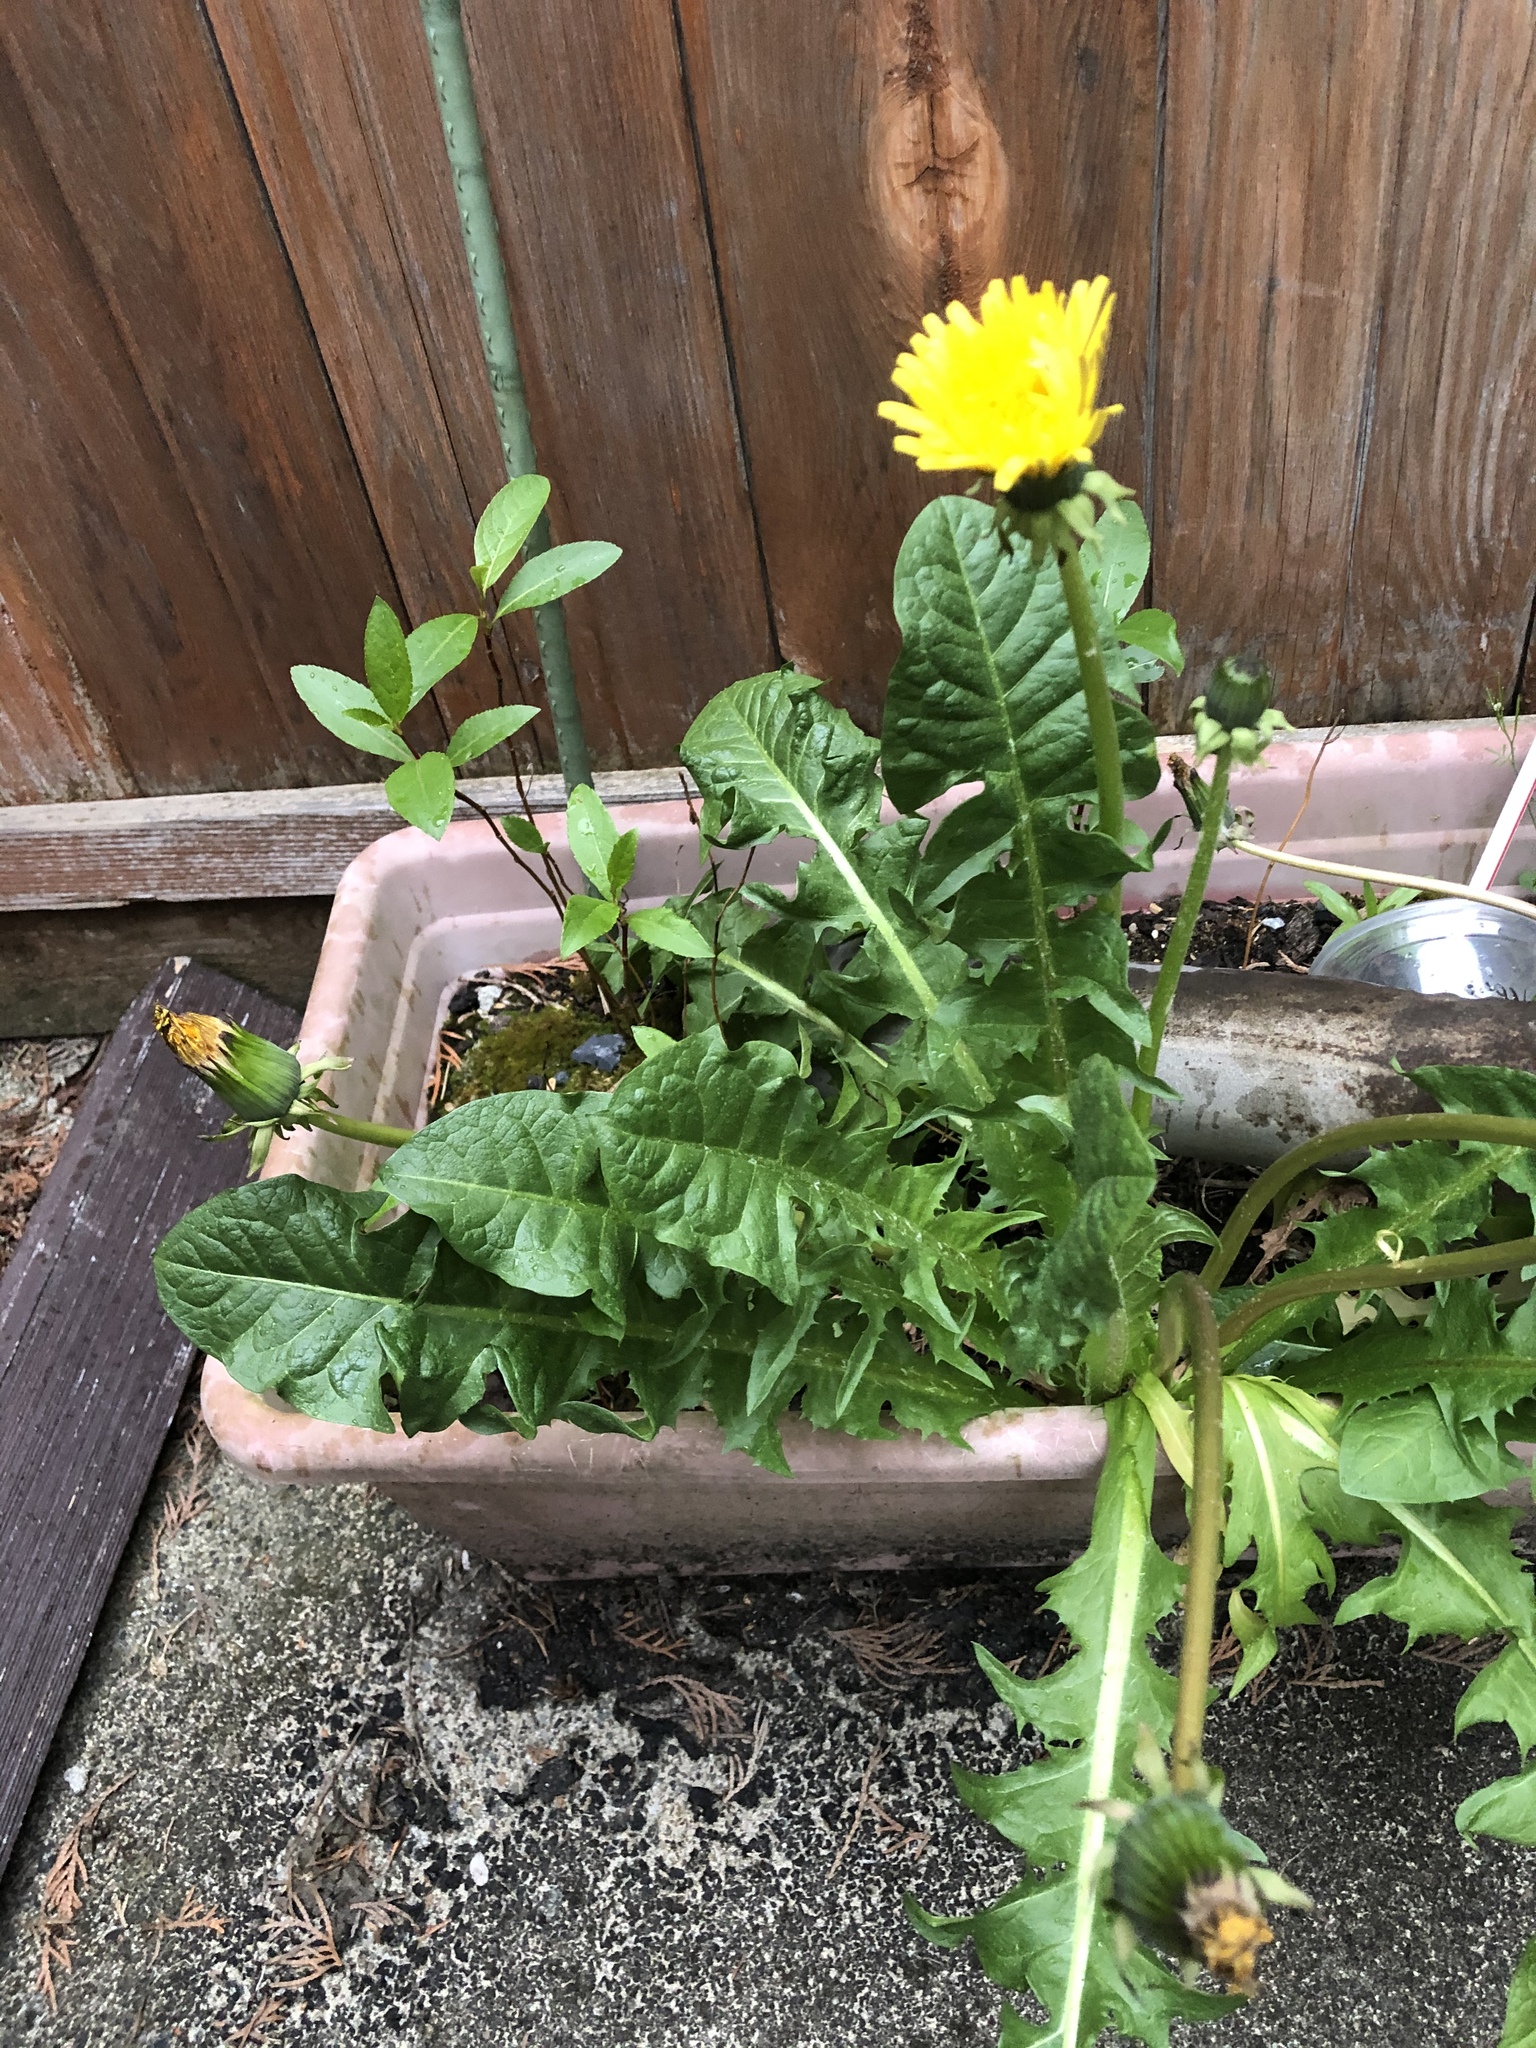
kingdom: Plantae
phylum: Tracheophyta
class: Magnoliopsida
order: Asterales
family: Asteraceae
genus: Taraxacum
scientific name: Taraxacum officinale
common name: Common dandelion
